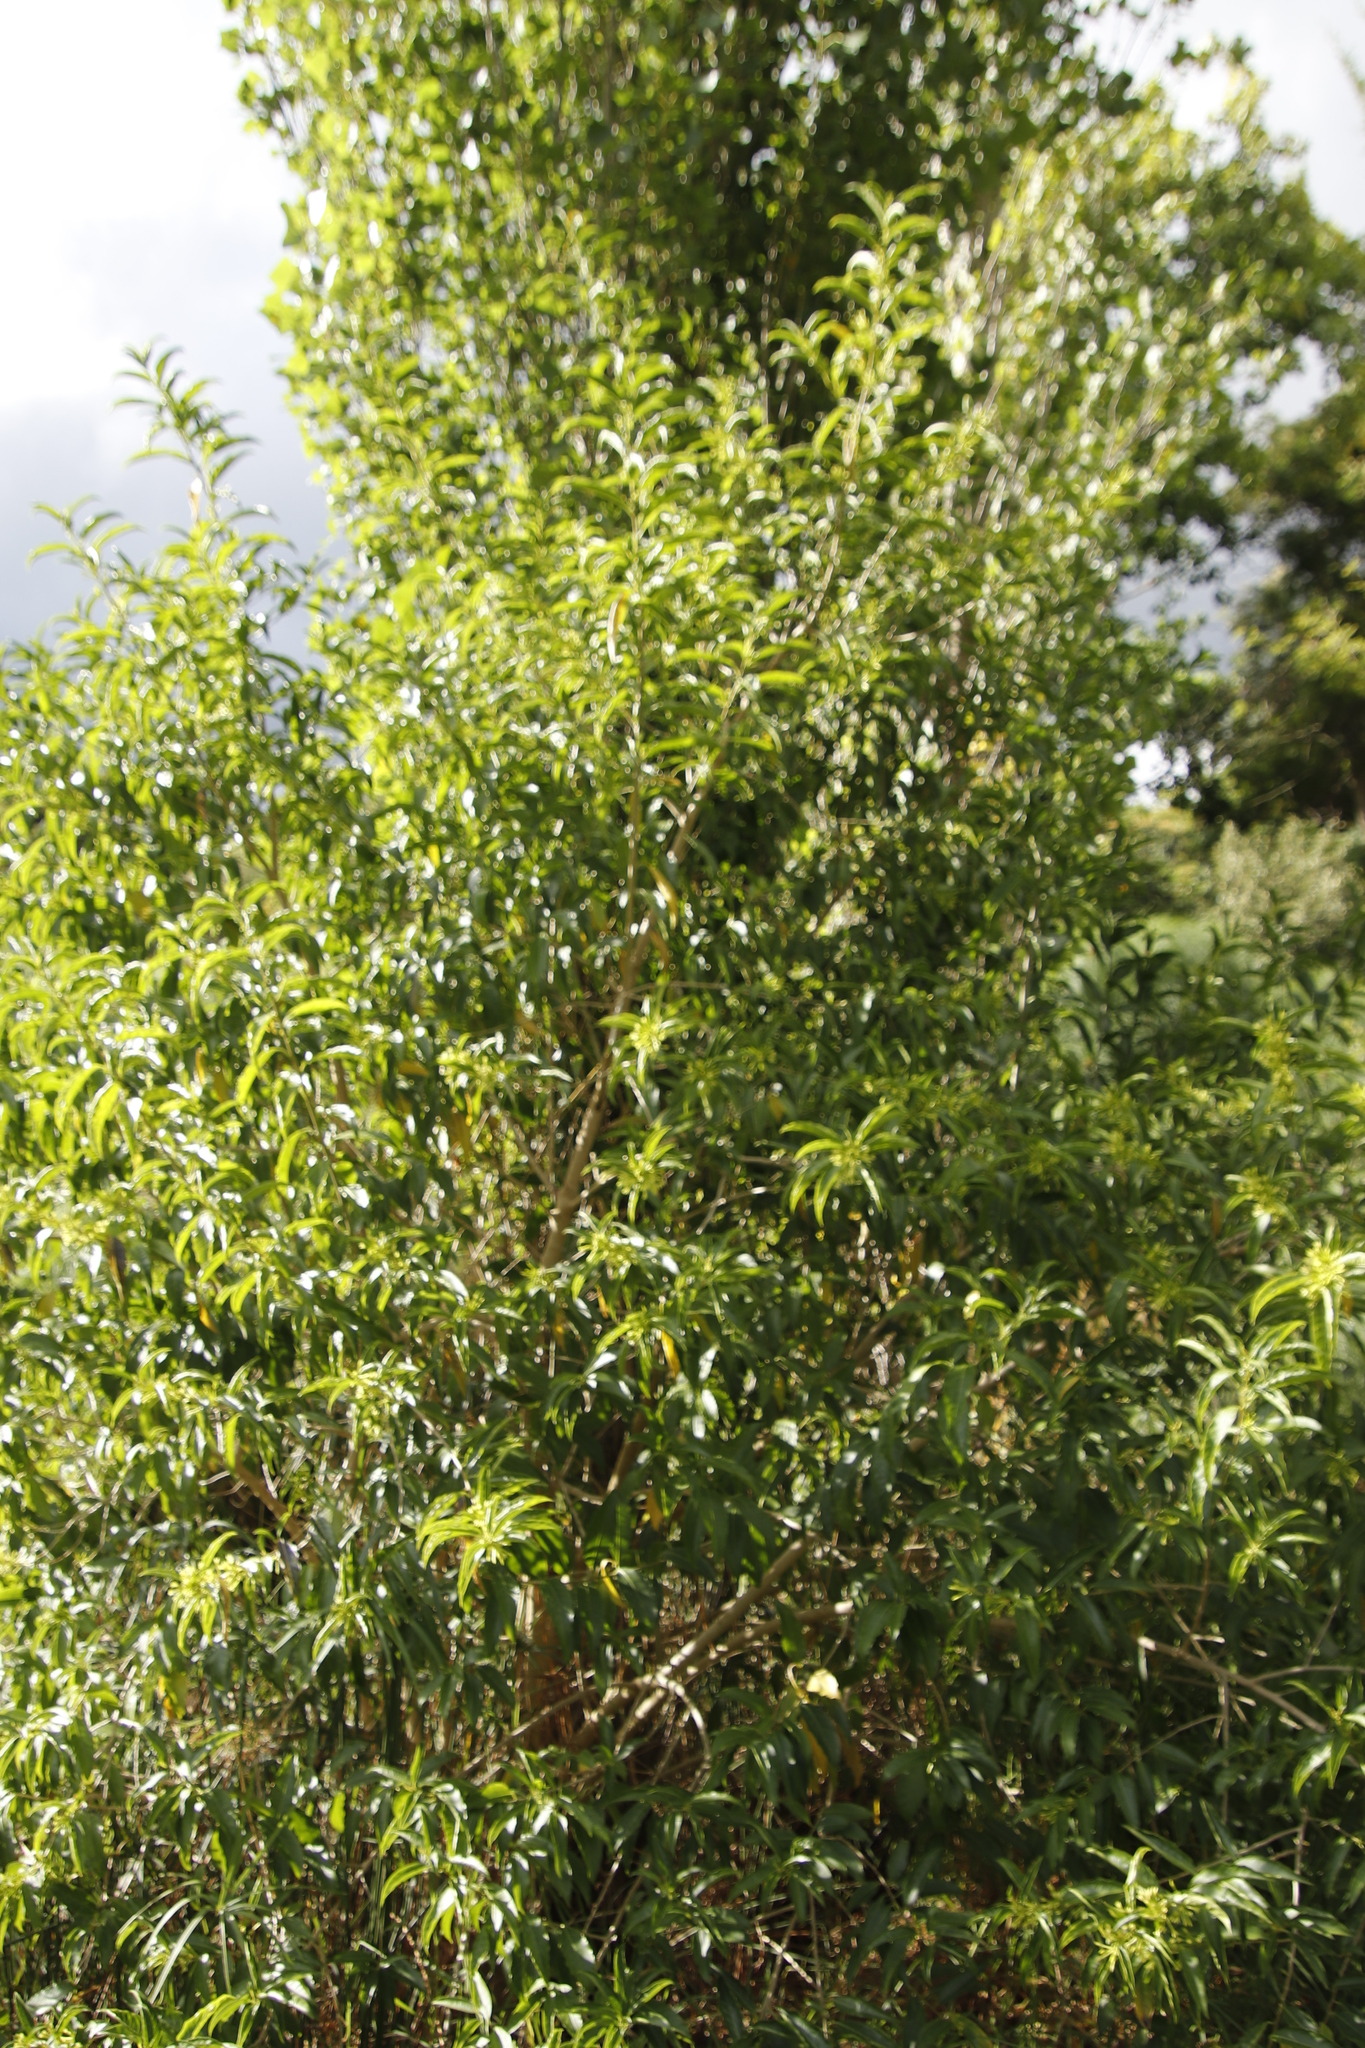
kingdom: Plantae
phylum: Tracheophyta
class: Magnoliopsida
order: Solanales
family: Solanaceae
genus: Cestrum
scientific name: Cestrum laevigatum
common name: Inkberry
